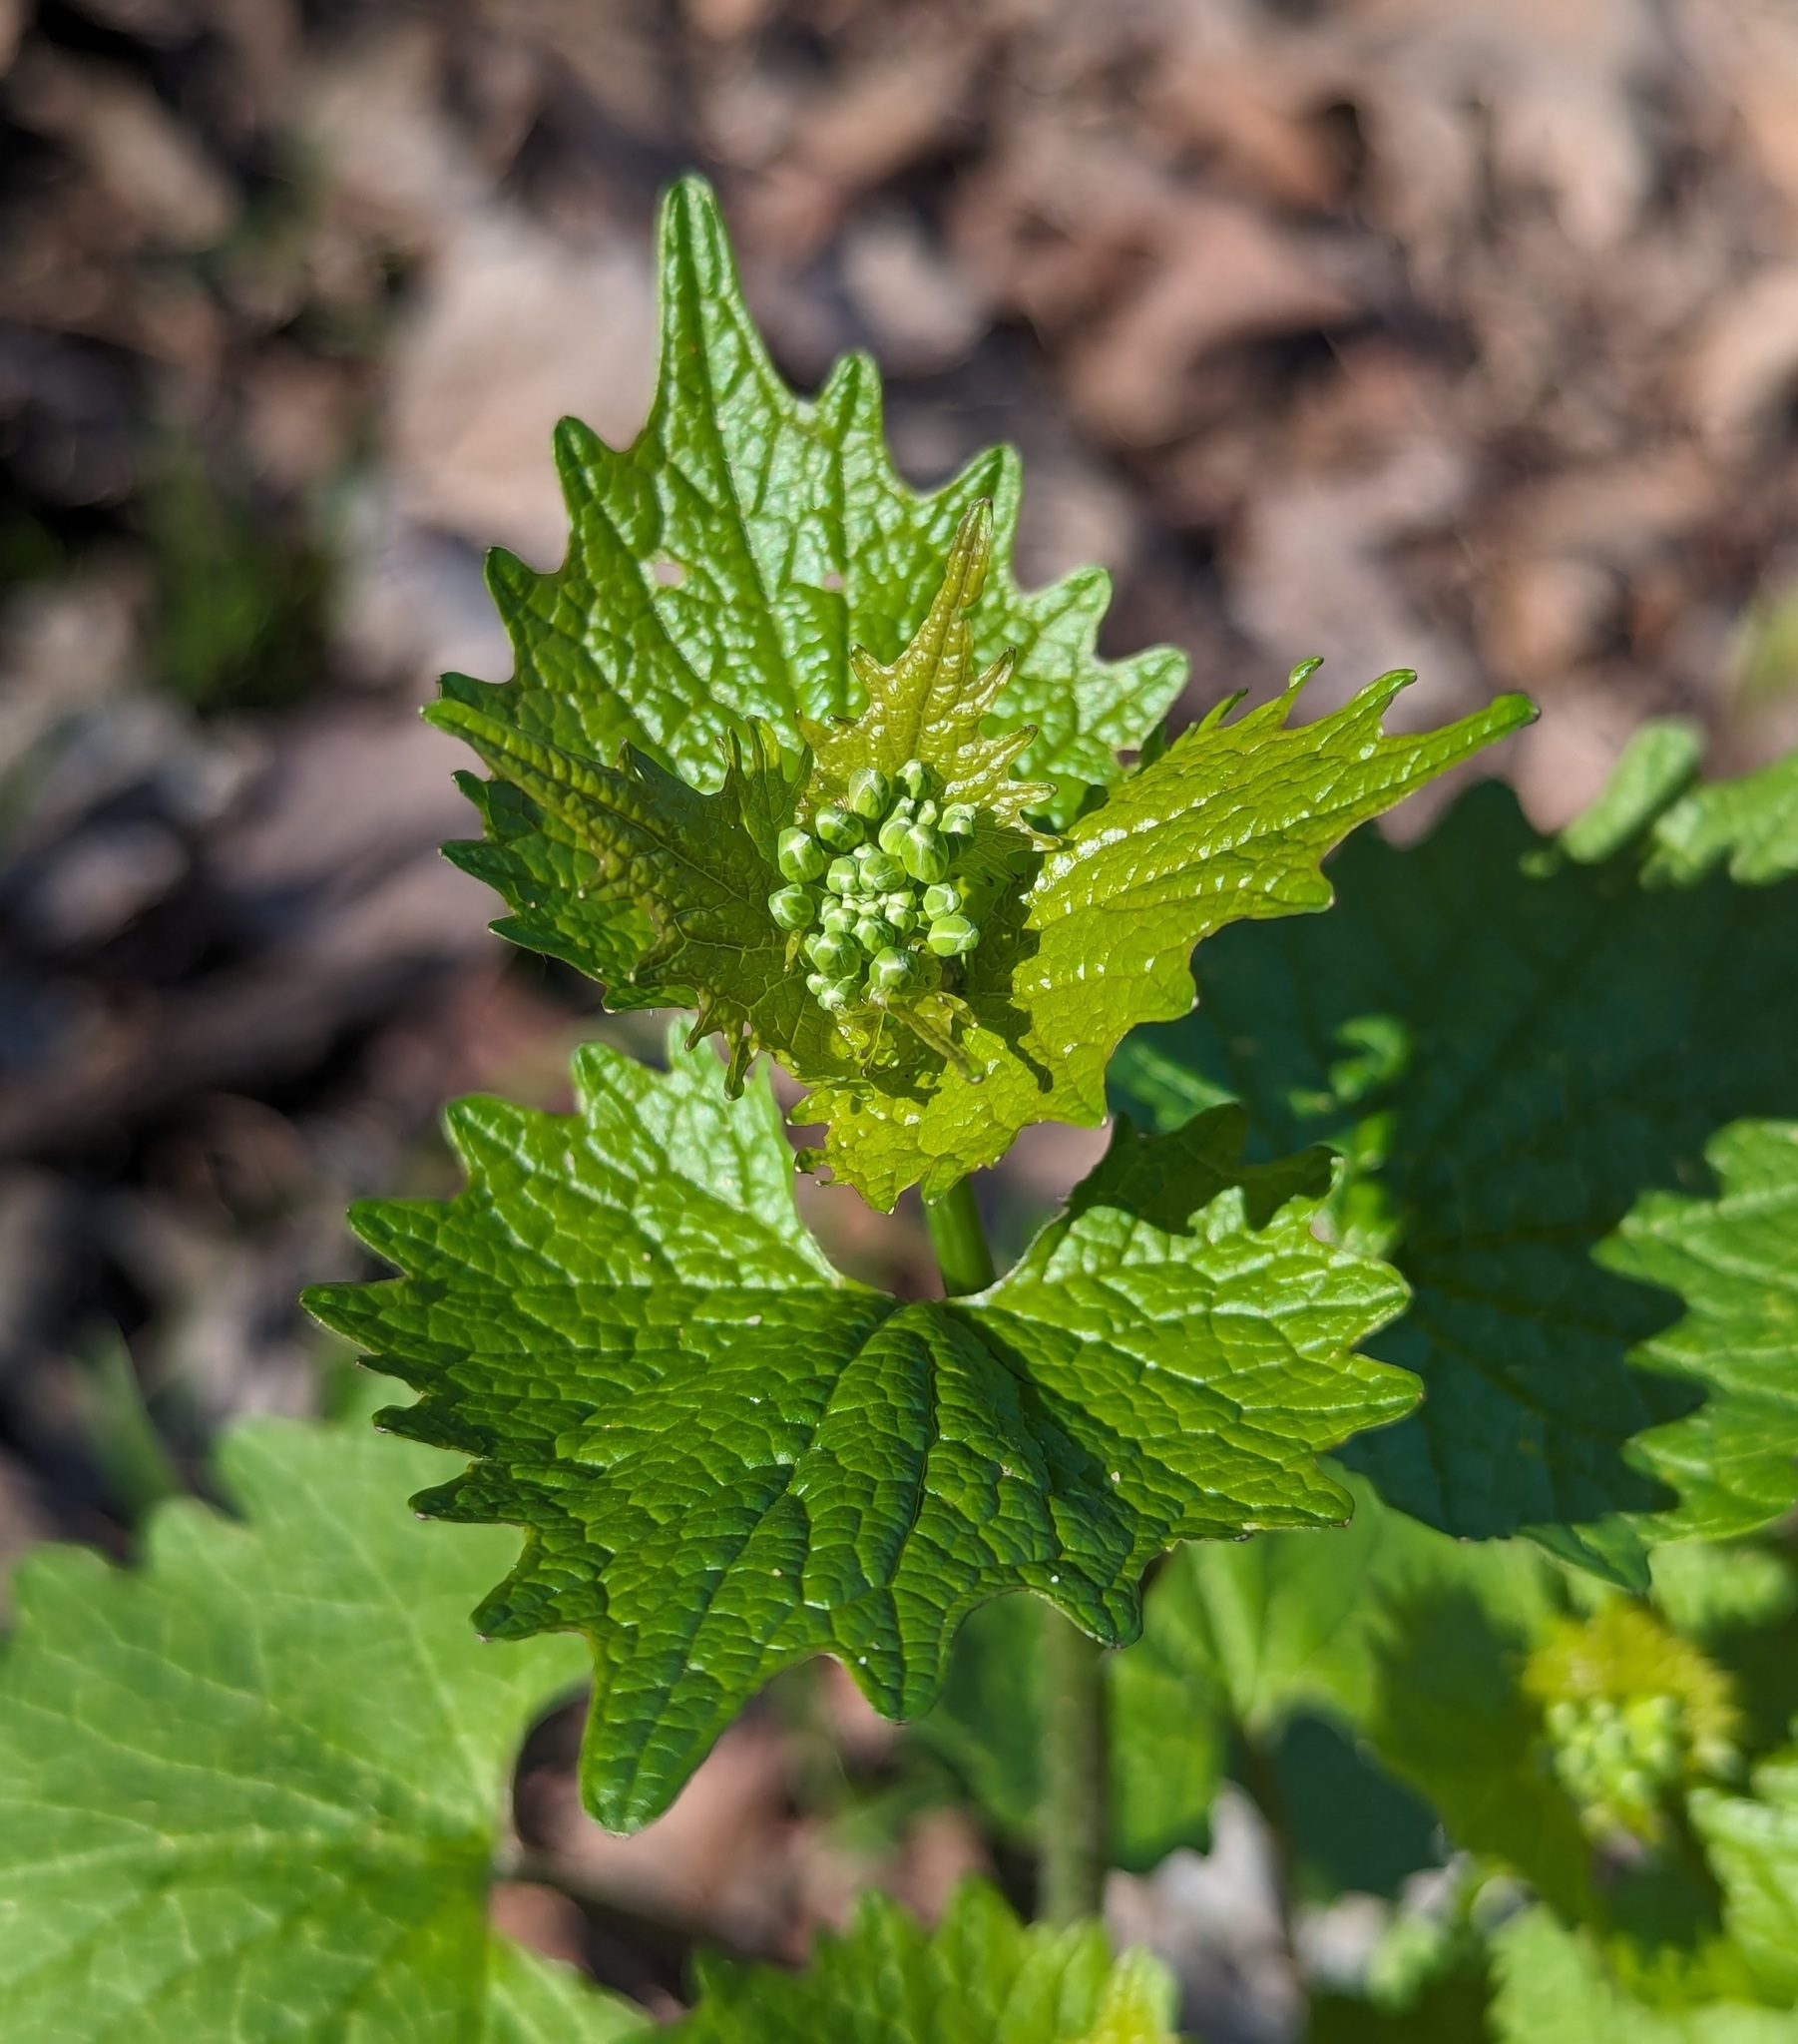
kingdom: Plantae
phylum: Tracheophyta
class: Magnoliopsida
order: Brassicales
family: Brassicaceae
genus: Alliaria
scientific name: Alliaria petiolata
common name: Garlic mustard
